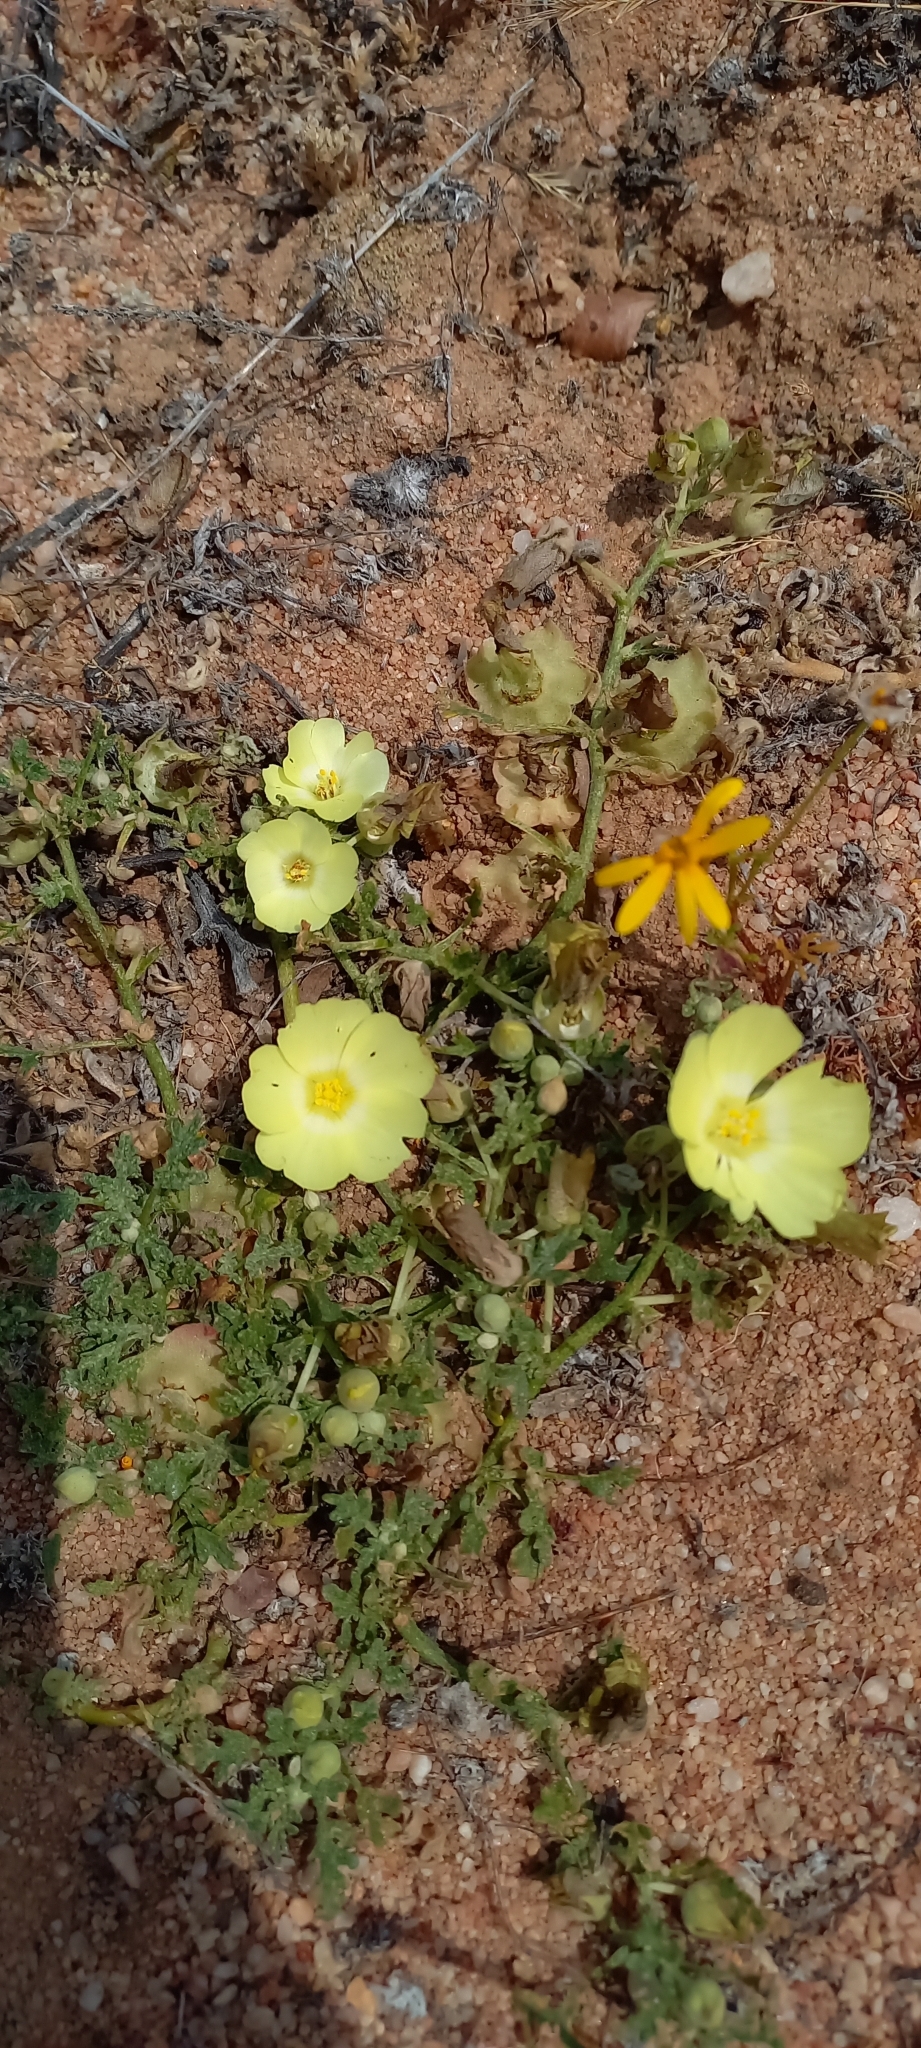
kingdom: Plantae
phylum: Tracheophyta
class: Magnoliopsida
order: Malvales
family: Neuradaceae
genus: Grielum
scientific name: Grielum humifusum
